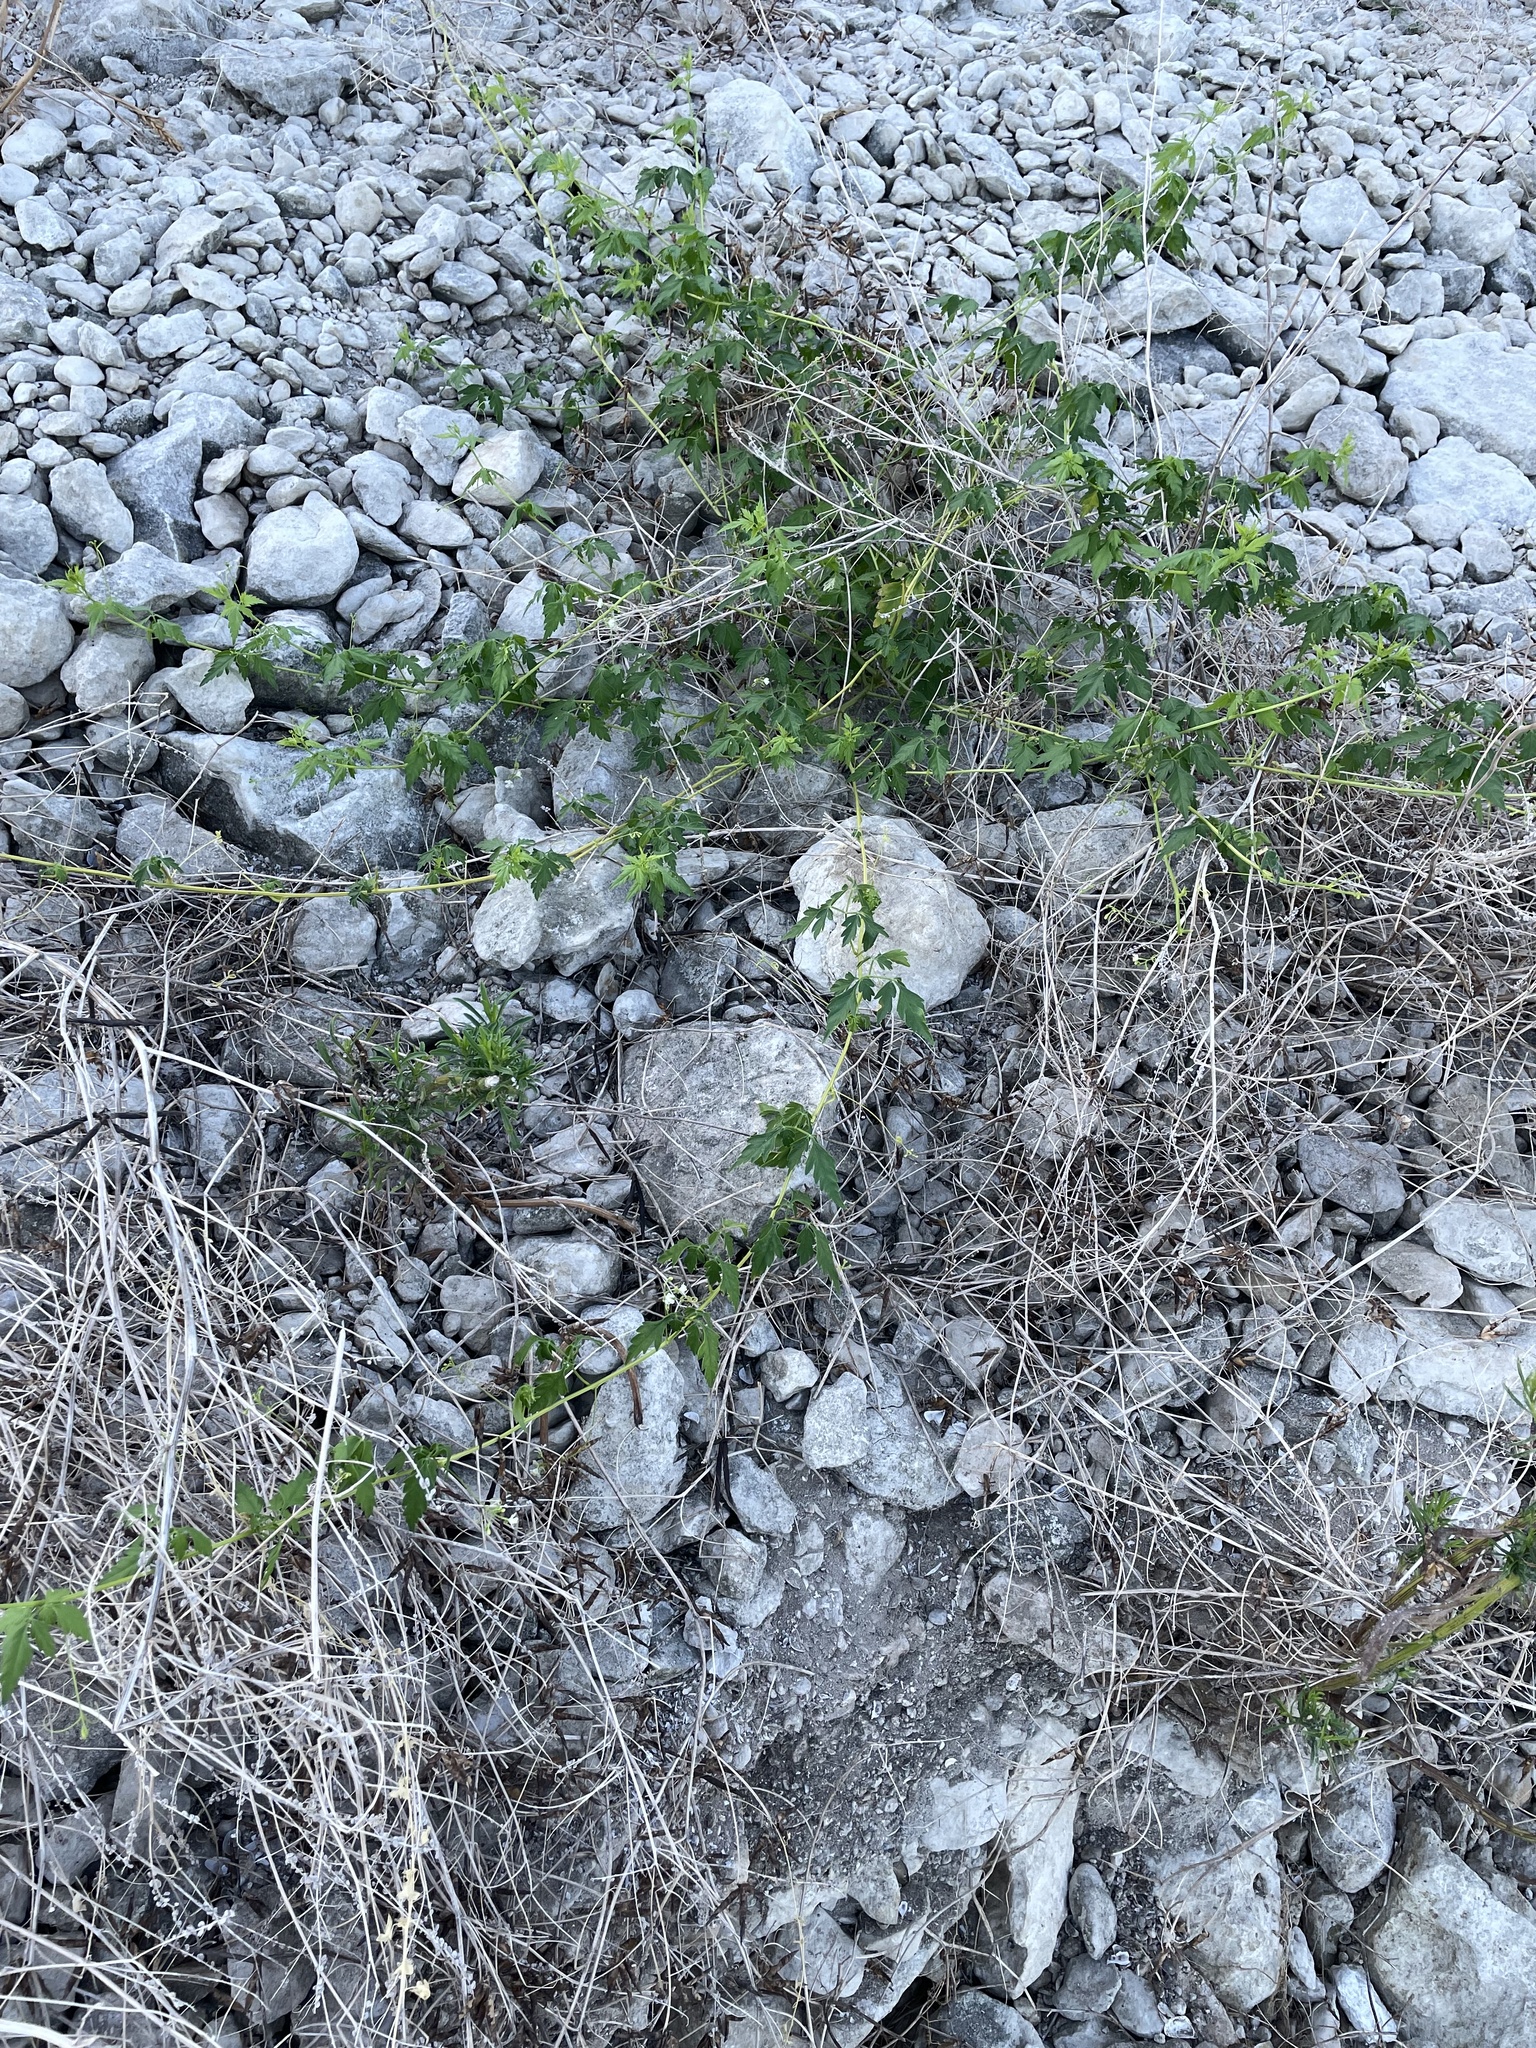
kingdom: Plantae
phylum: Tracheophyta
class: Magnoliopsida
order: Sapindales
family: Sapindaceae
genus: Cardiospermum
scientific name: Cardiospermum halicacabum
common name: Balloon vine
